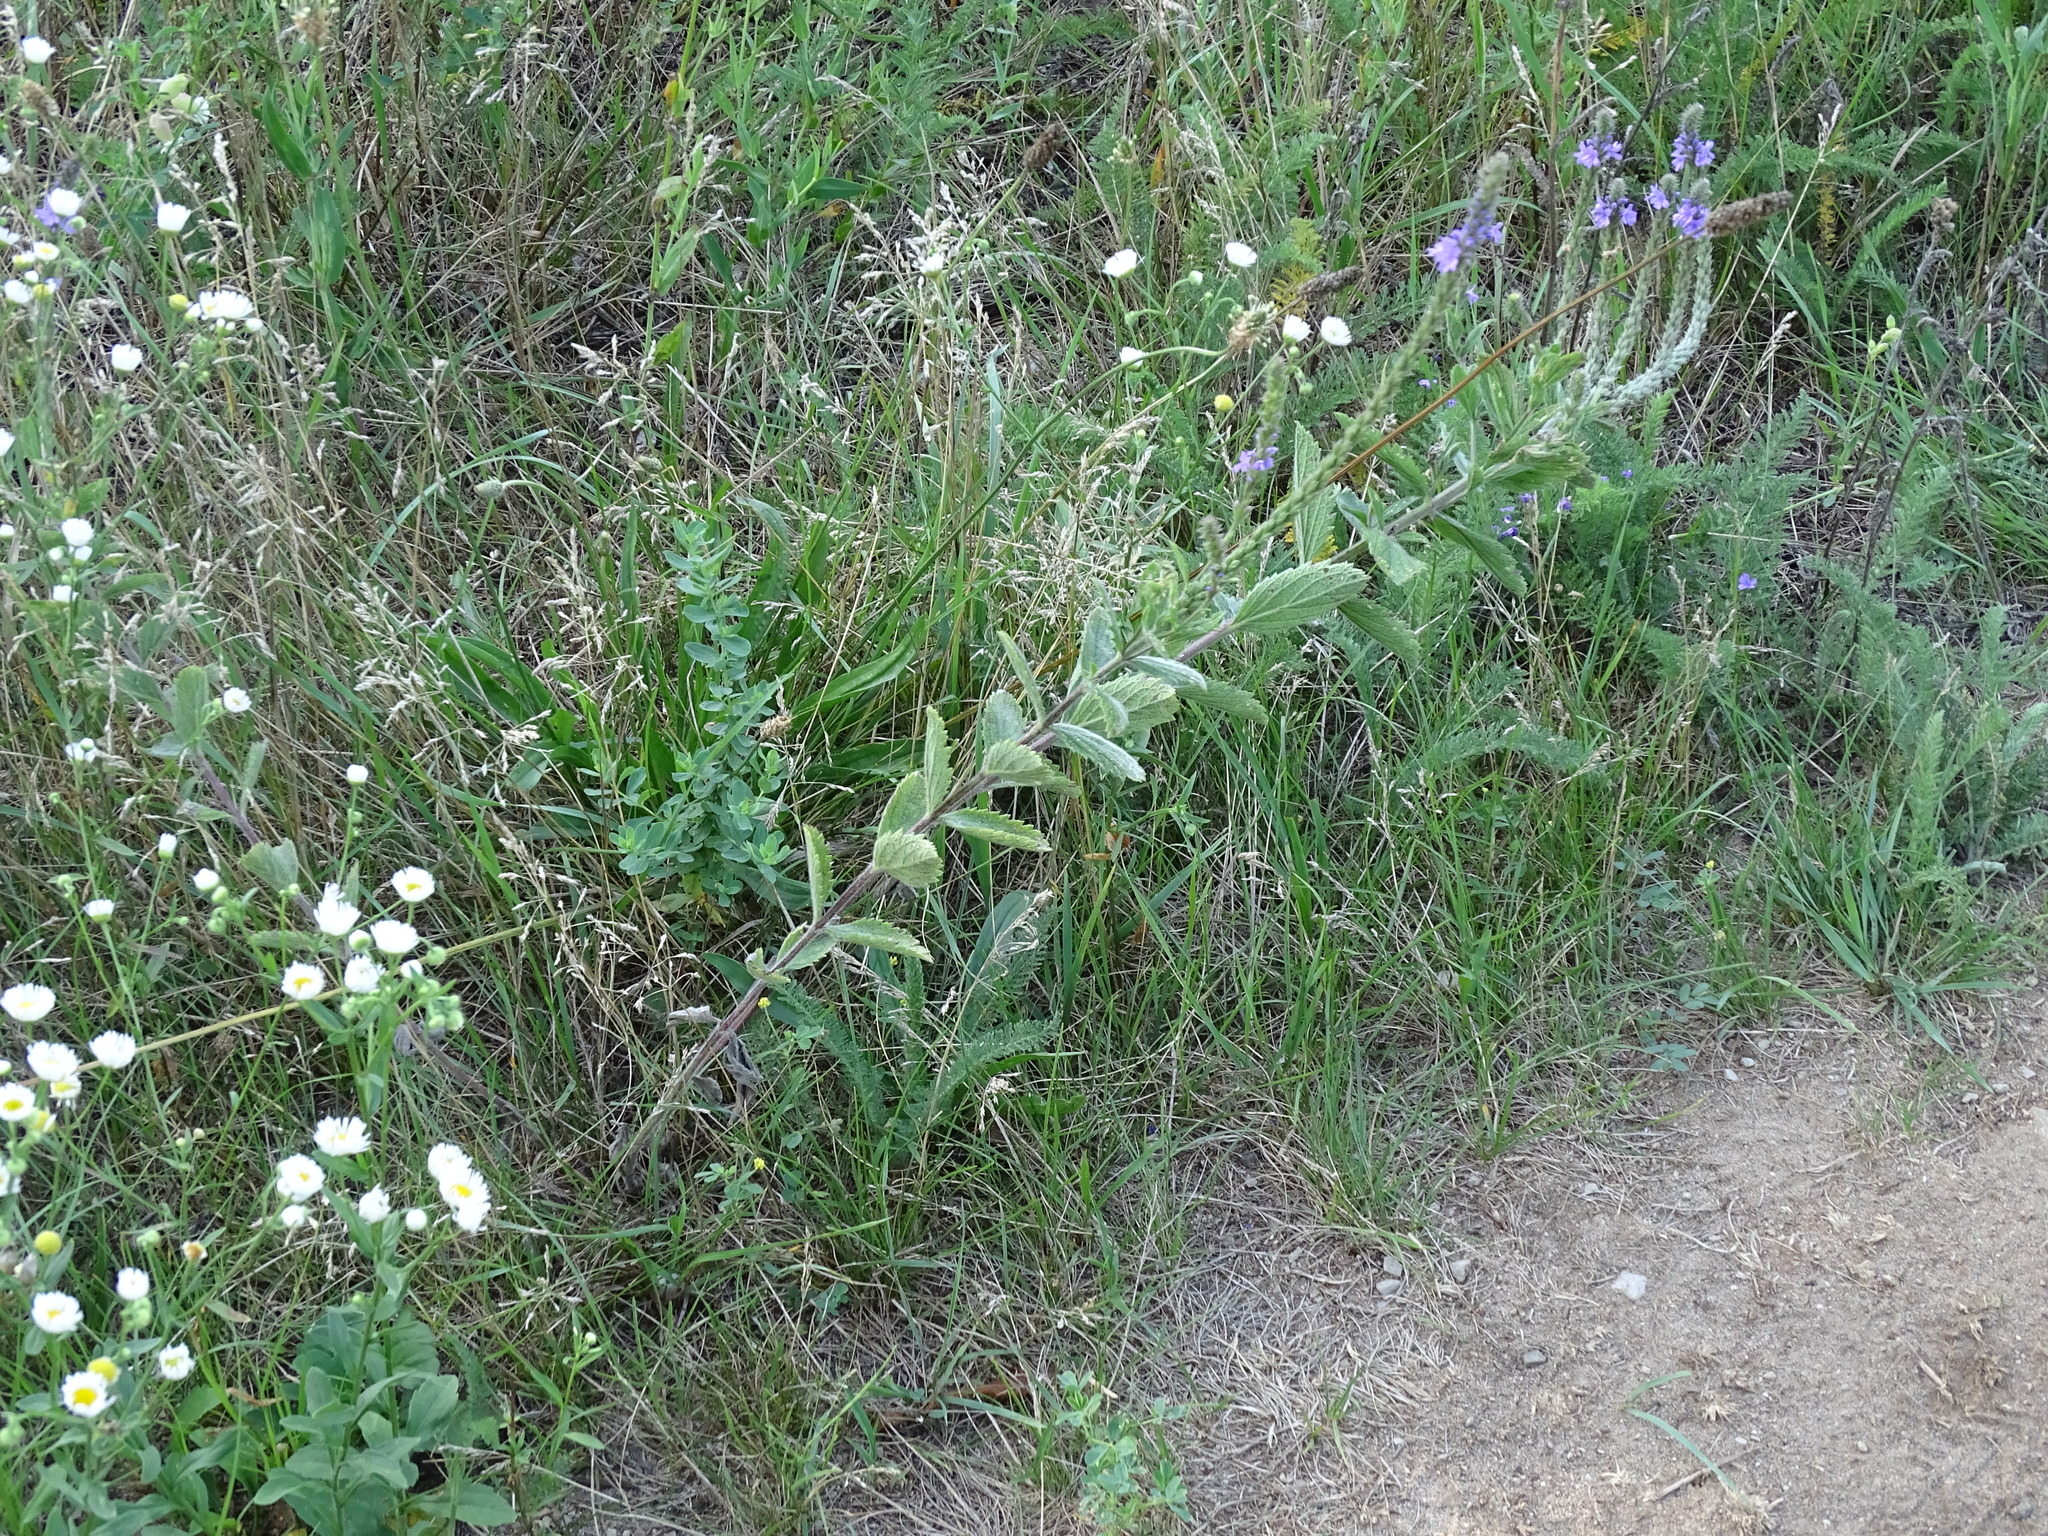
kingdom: Plantae
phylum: Tracheophyta
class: Magnoliopsida
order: Lamiales
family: Verbenaceae
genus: Verbena
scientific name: Verbena stricta
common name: Hoary vervain
